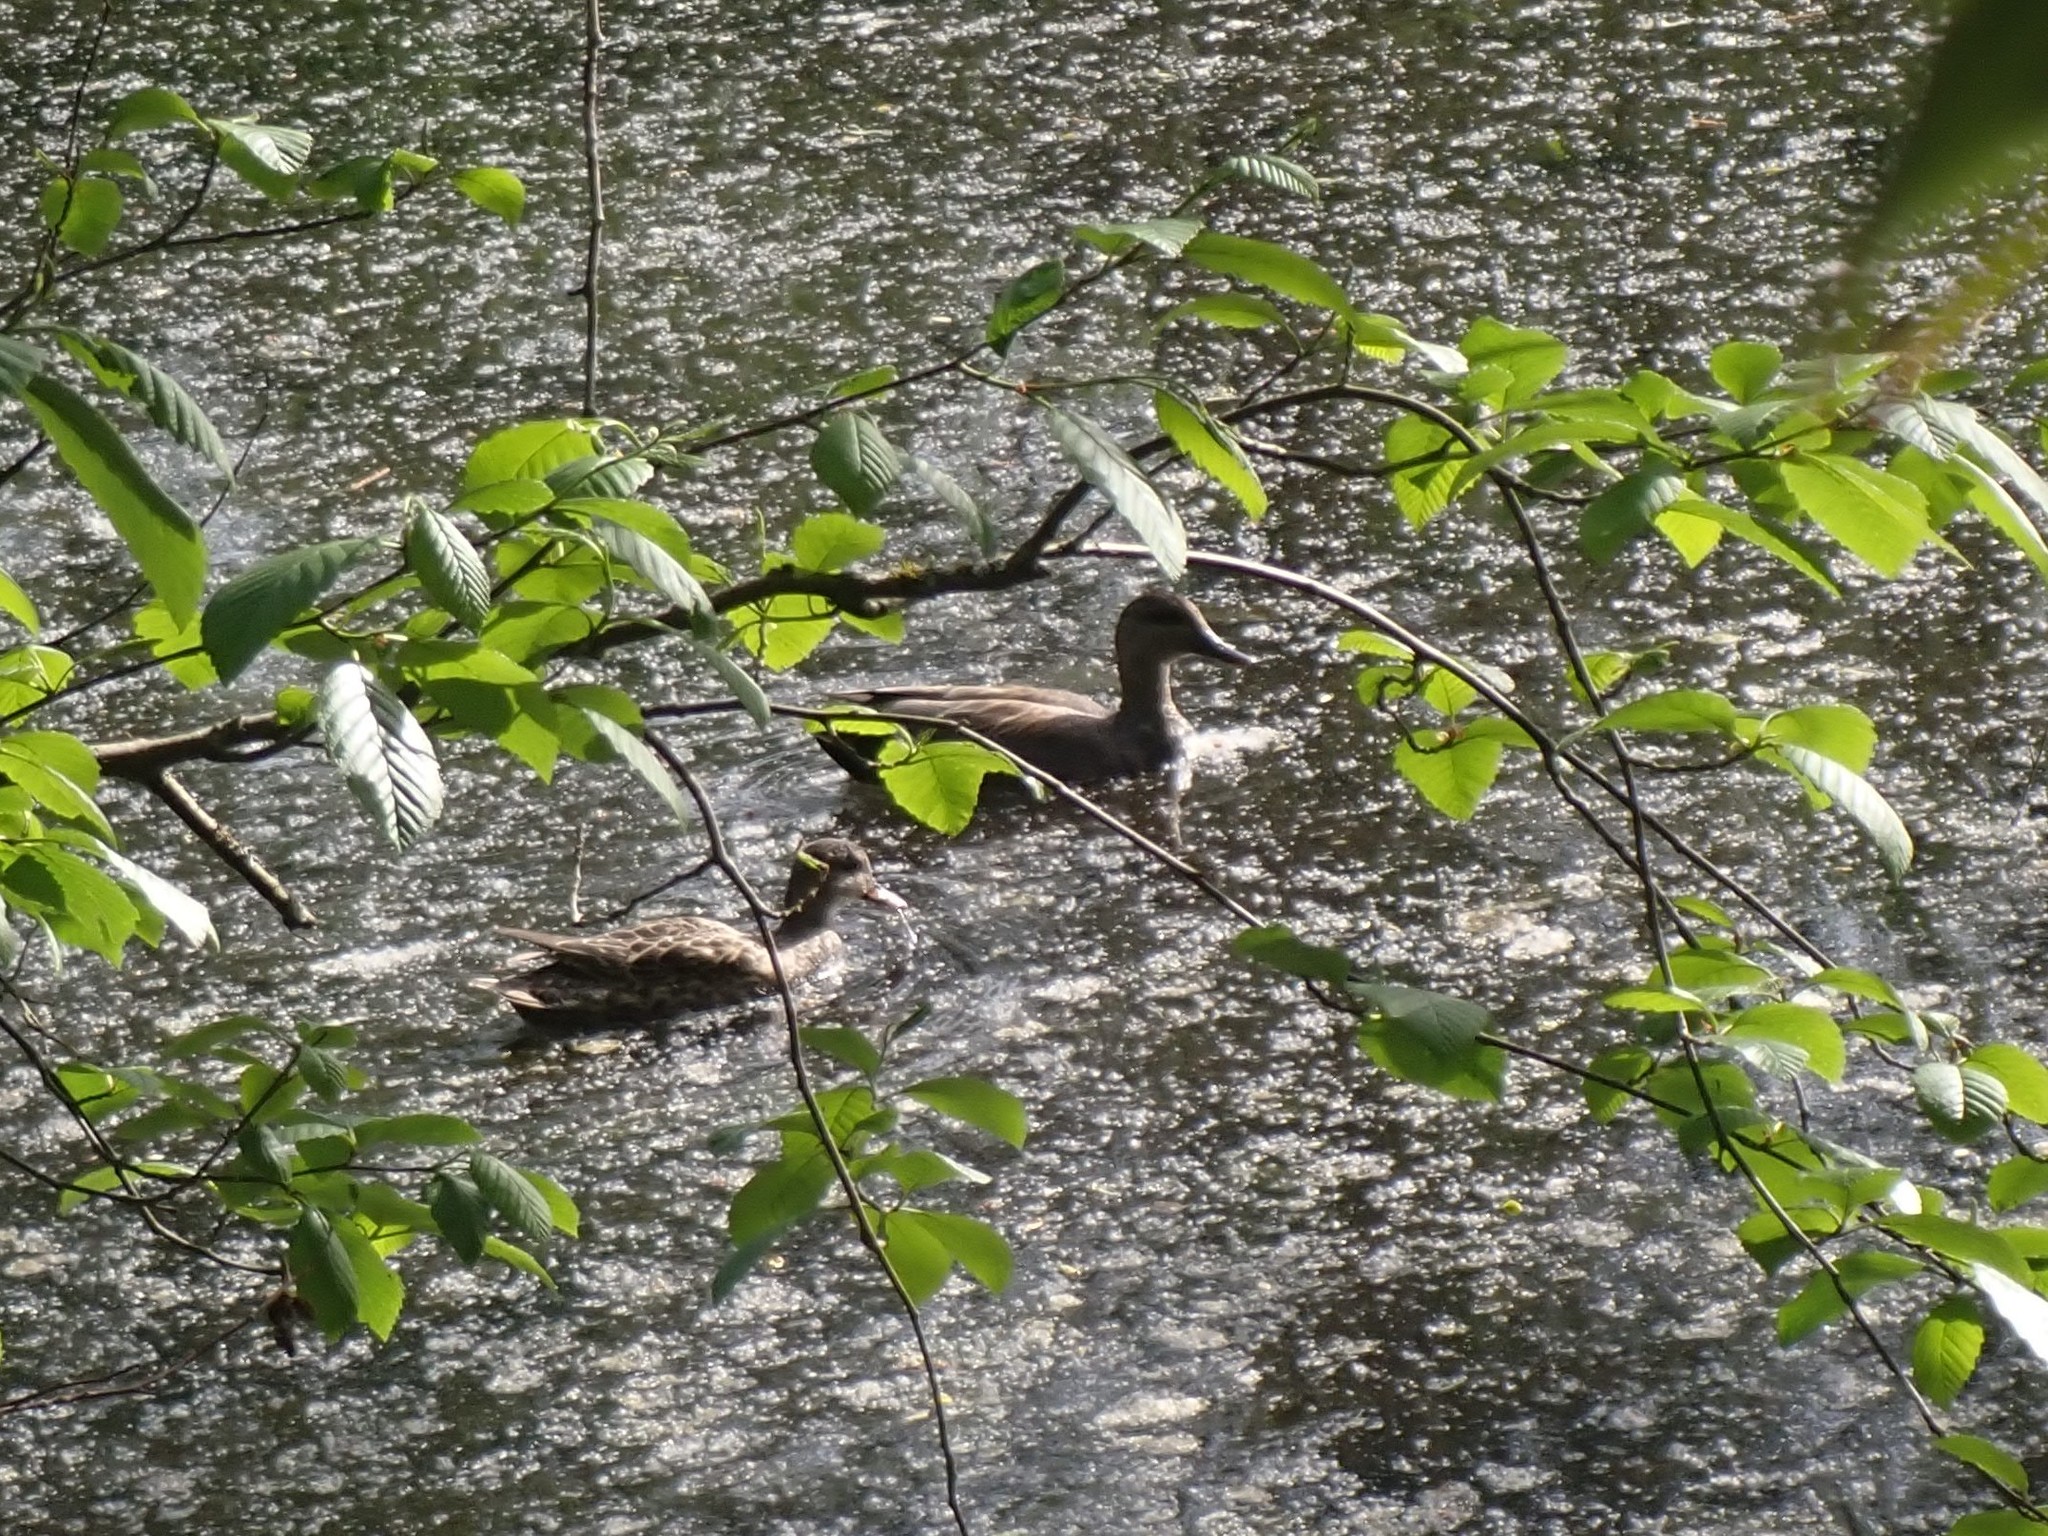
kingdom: Animalia
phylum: Chordata
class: Aves
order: Anseriformes
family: Anatidae
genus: Mareca
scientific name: Mareca strepera
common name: Gadwall
